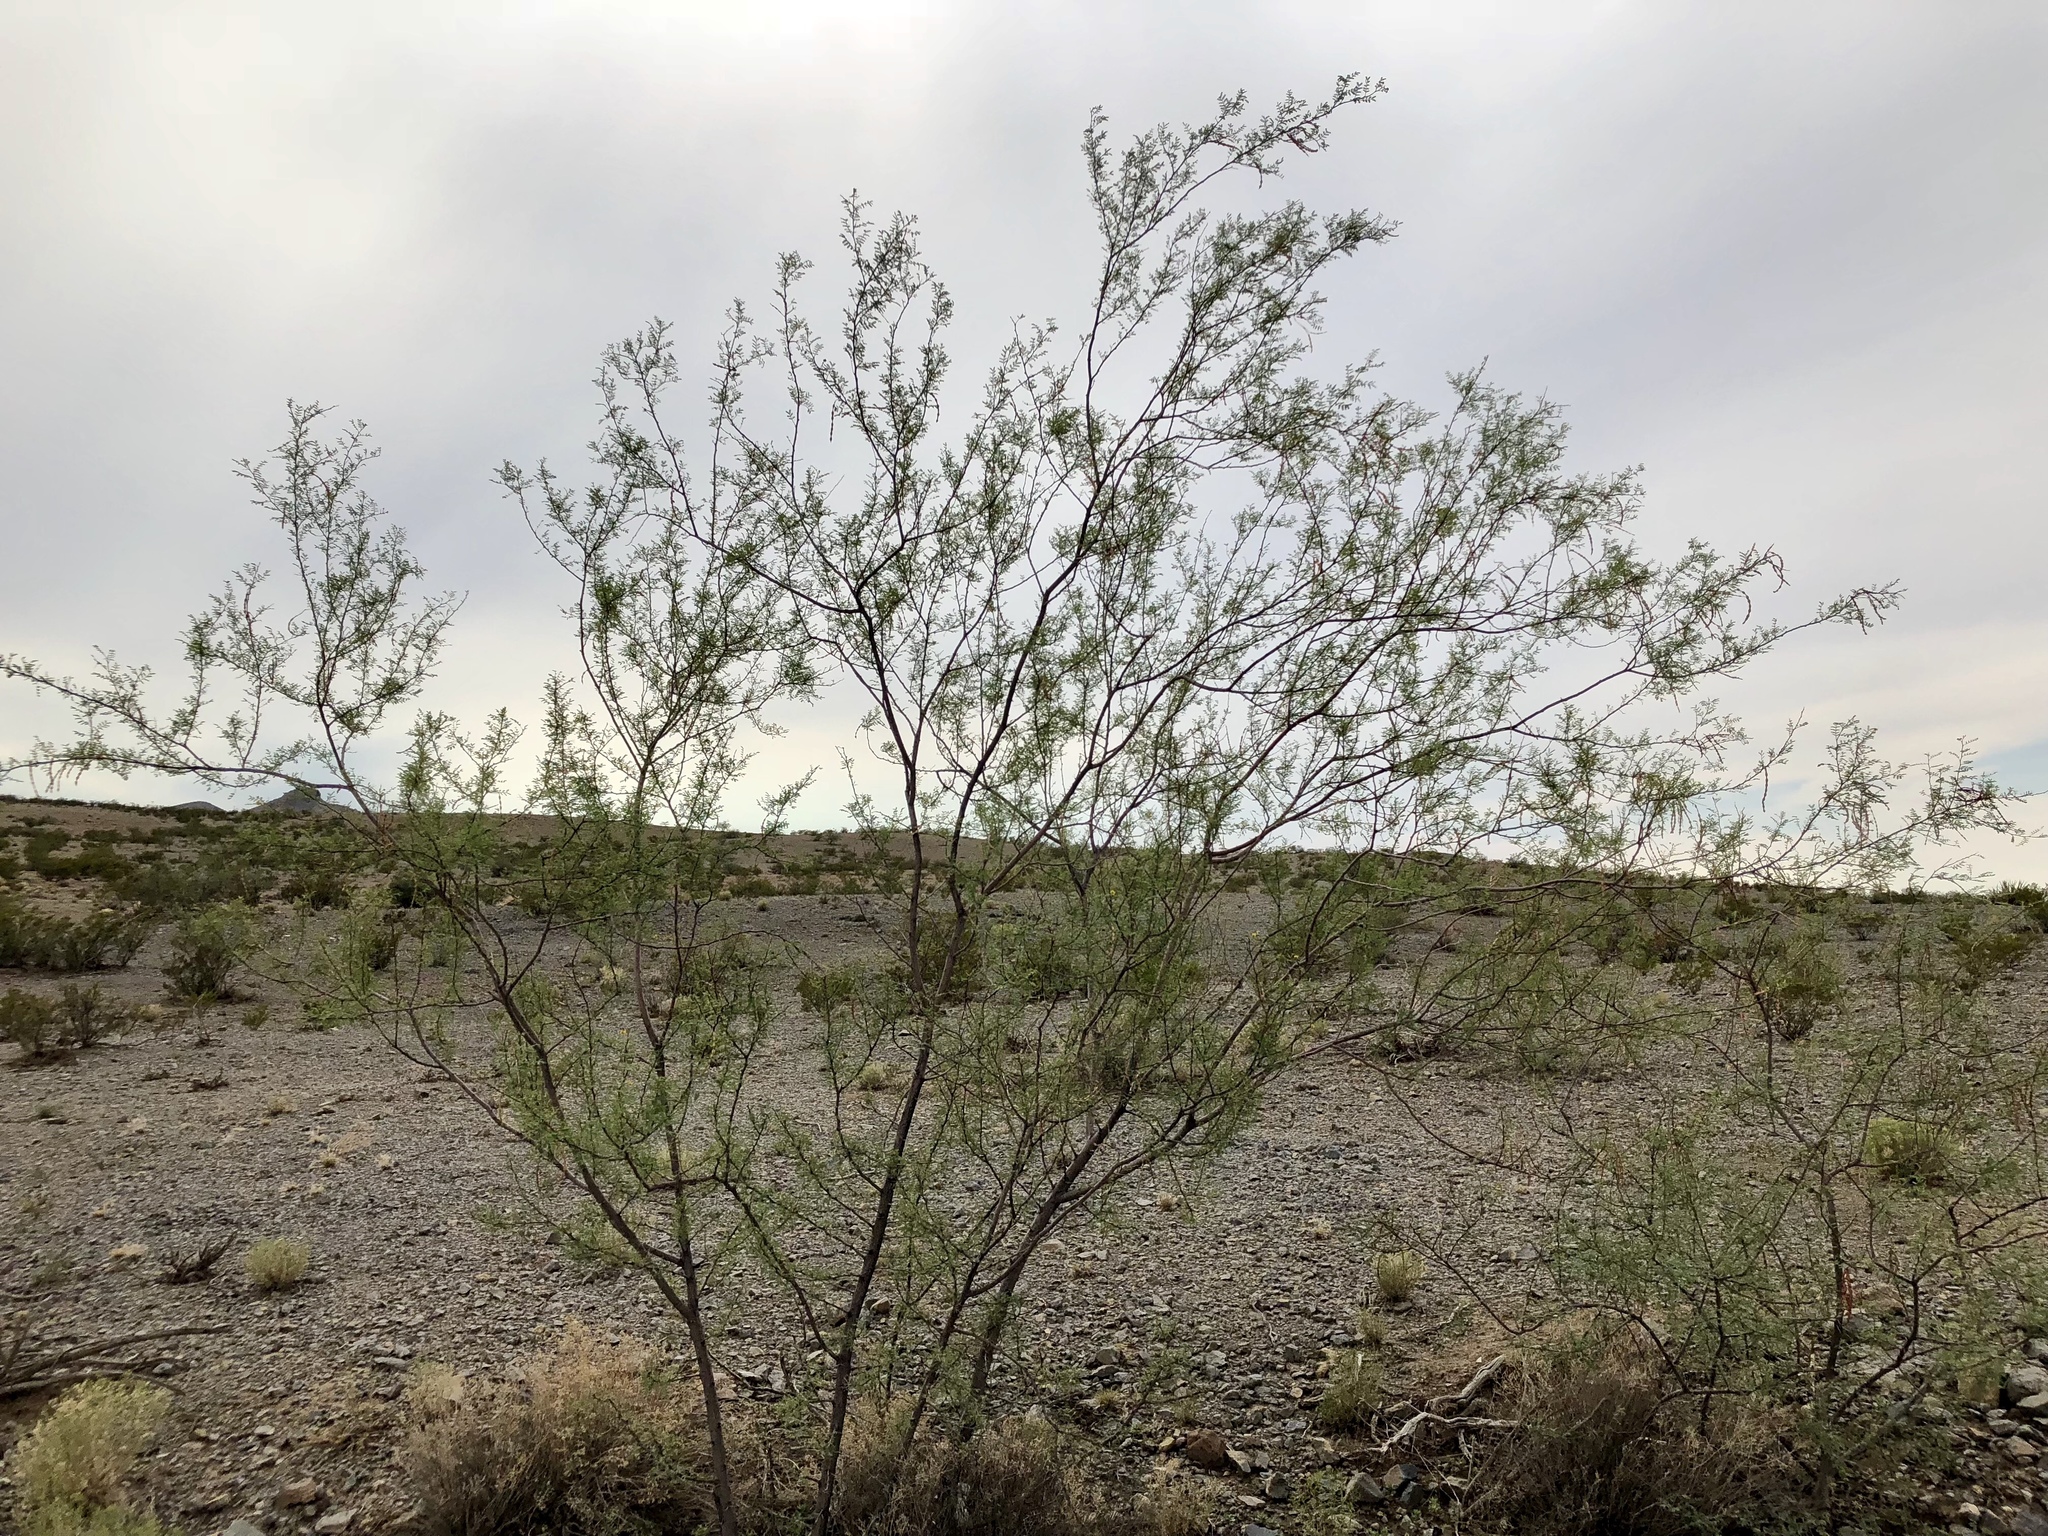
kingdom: Plantae
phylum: Tracheophyta
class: Magnoliopsida
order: Fabales
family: Fabaceae
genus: Vachellia
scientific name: Vachellia constricta
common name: Mescat acacia
